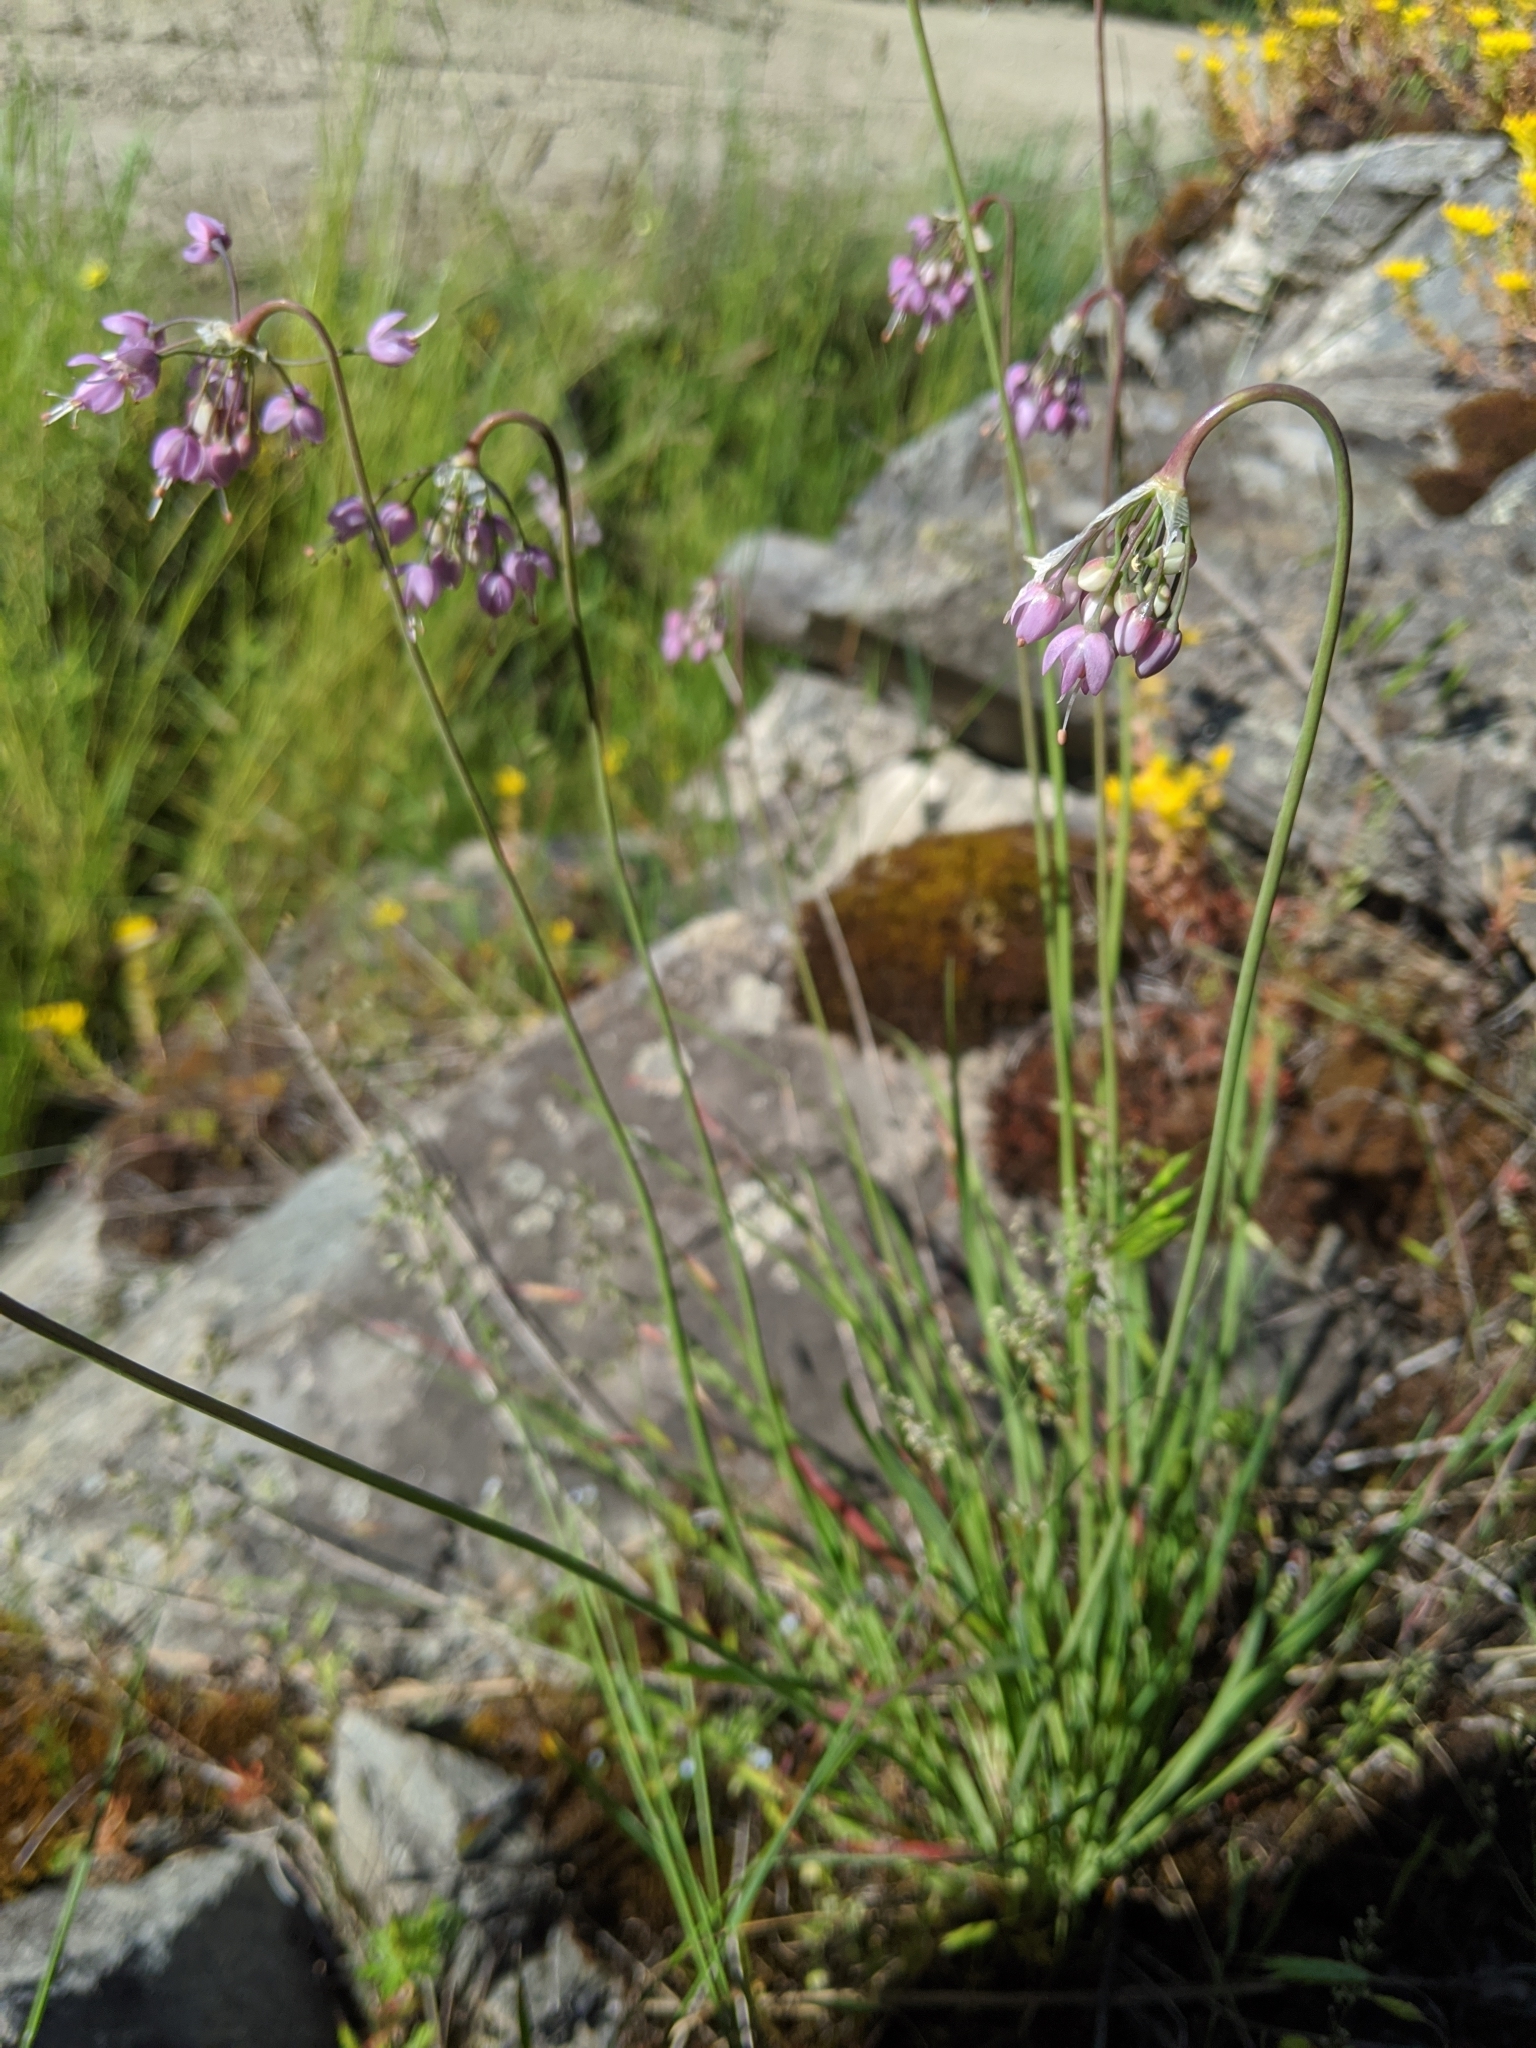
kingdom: Plantae
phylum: Tracheophyta
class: Liliopsida
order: Asparagales
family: Amaryllidaceae
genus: Allium
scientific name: Allium cernuum
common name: Nodding onion
